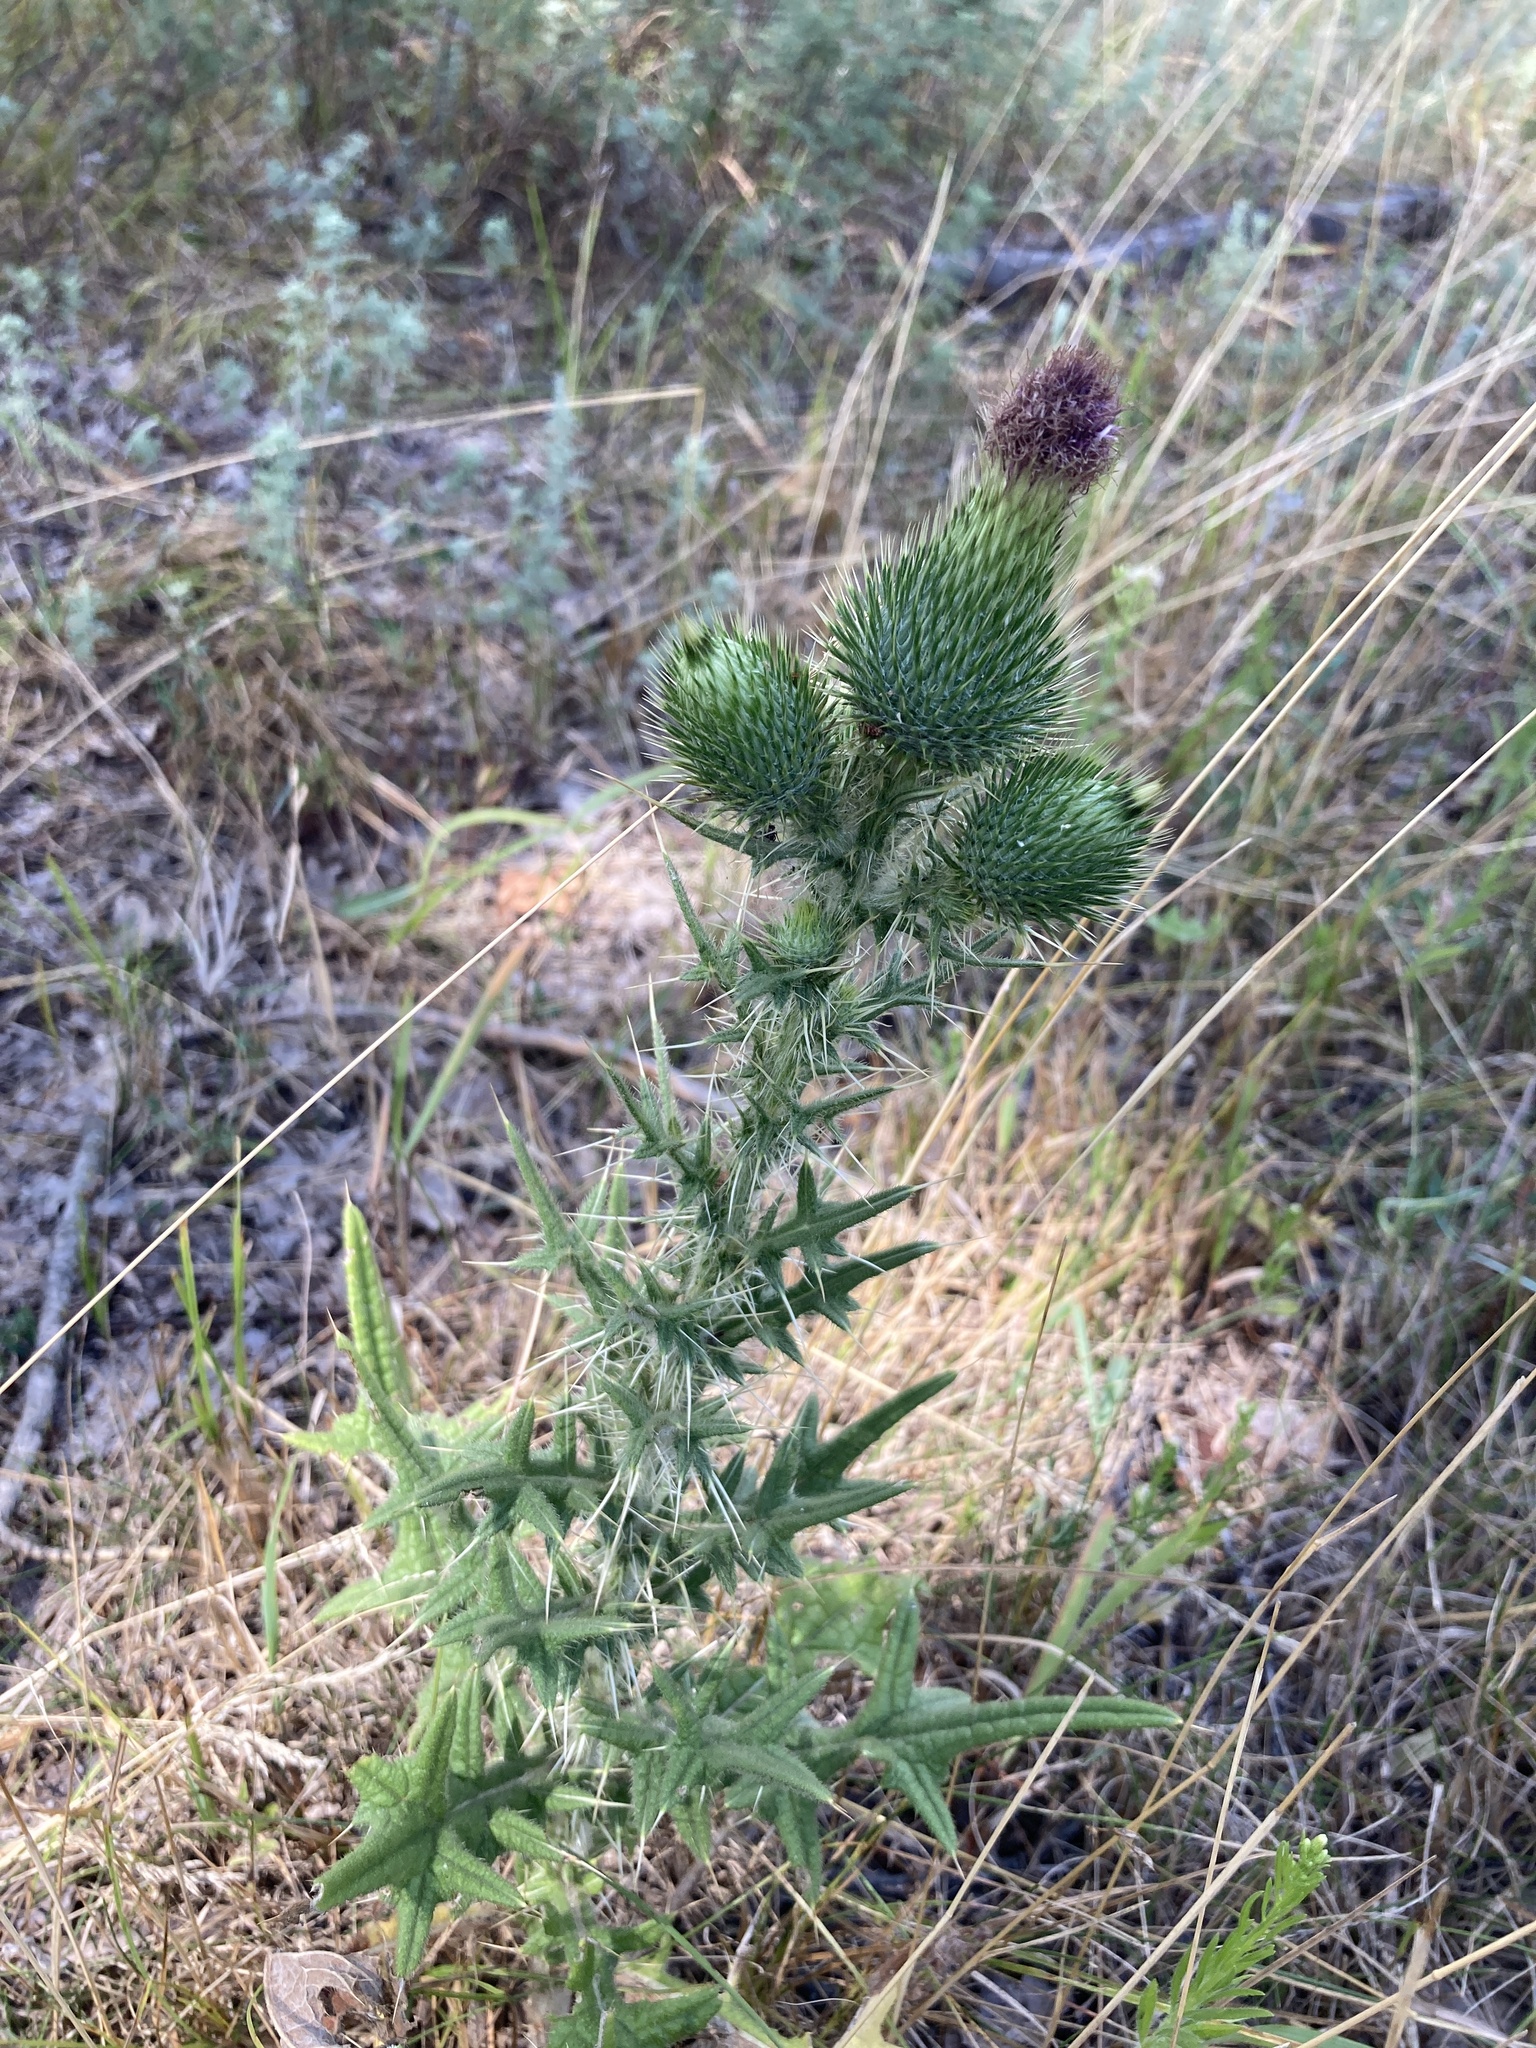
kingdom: Plantae
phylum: Tracheophyta
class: Magnoliopsida
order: Asterales
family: Asteraceae
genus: Cirsium
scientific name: Cirsium vulgare
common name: Bull thistle
